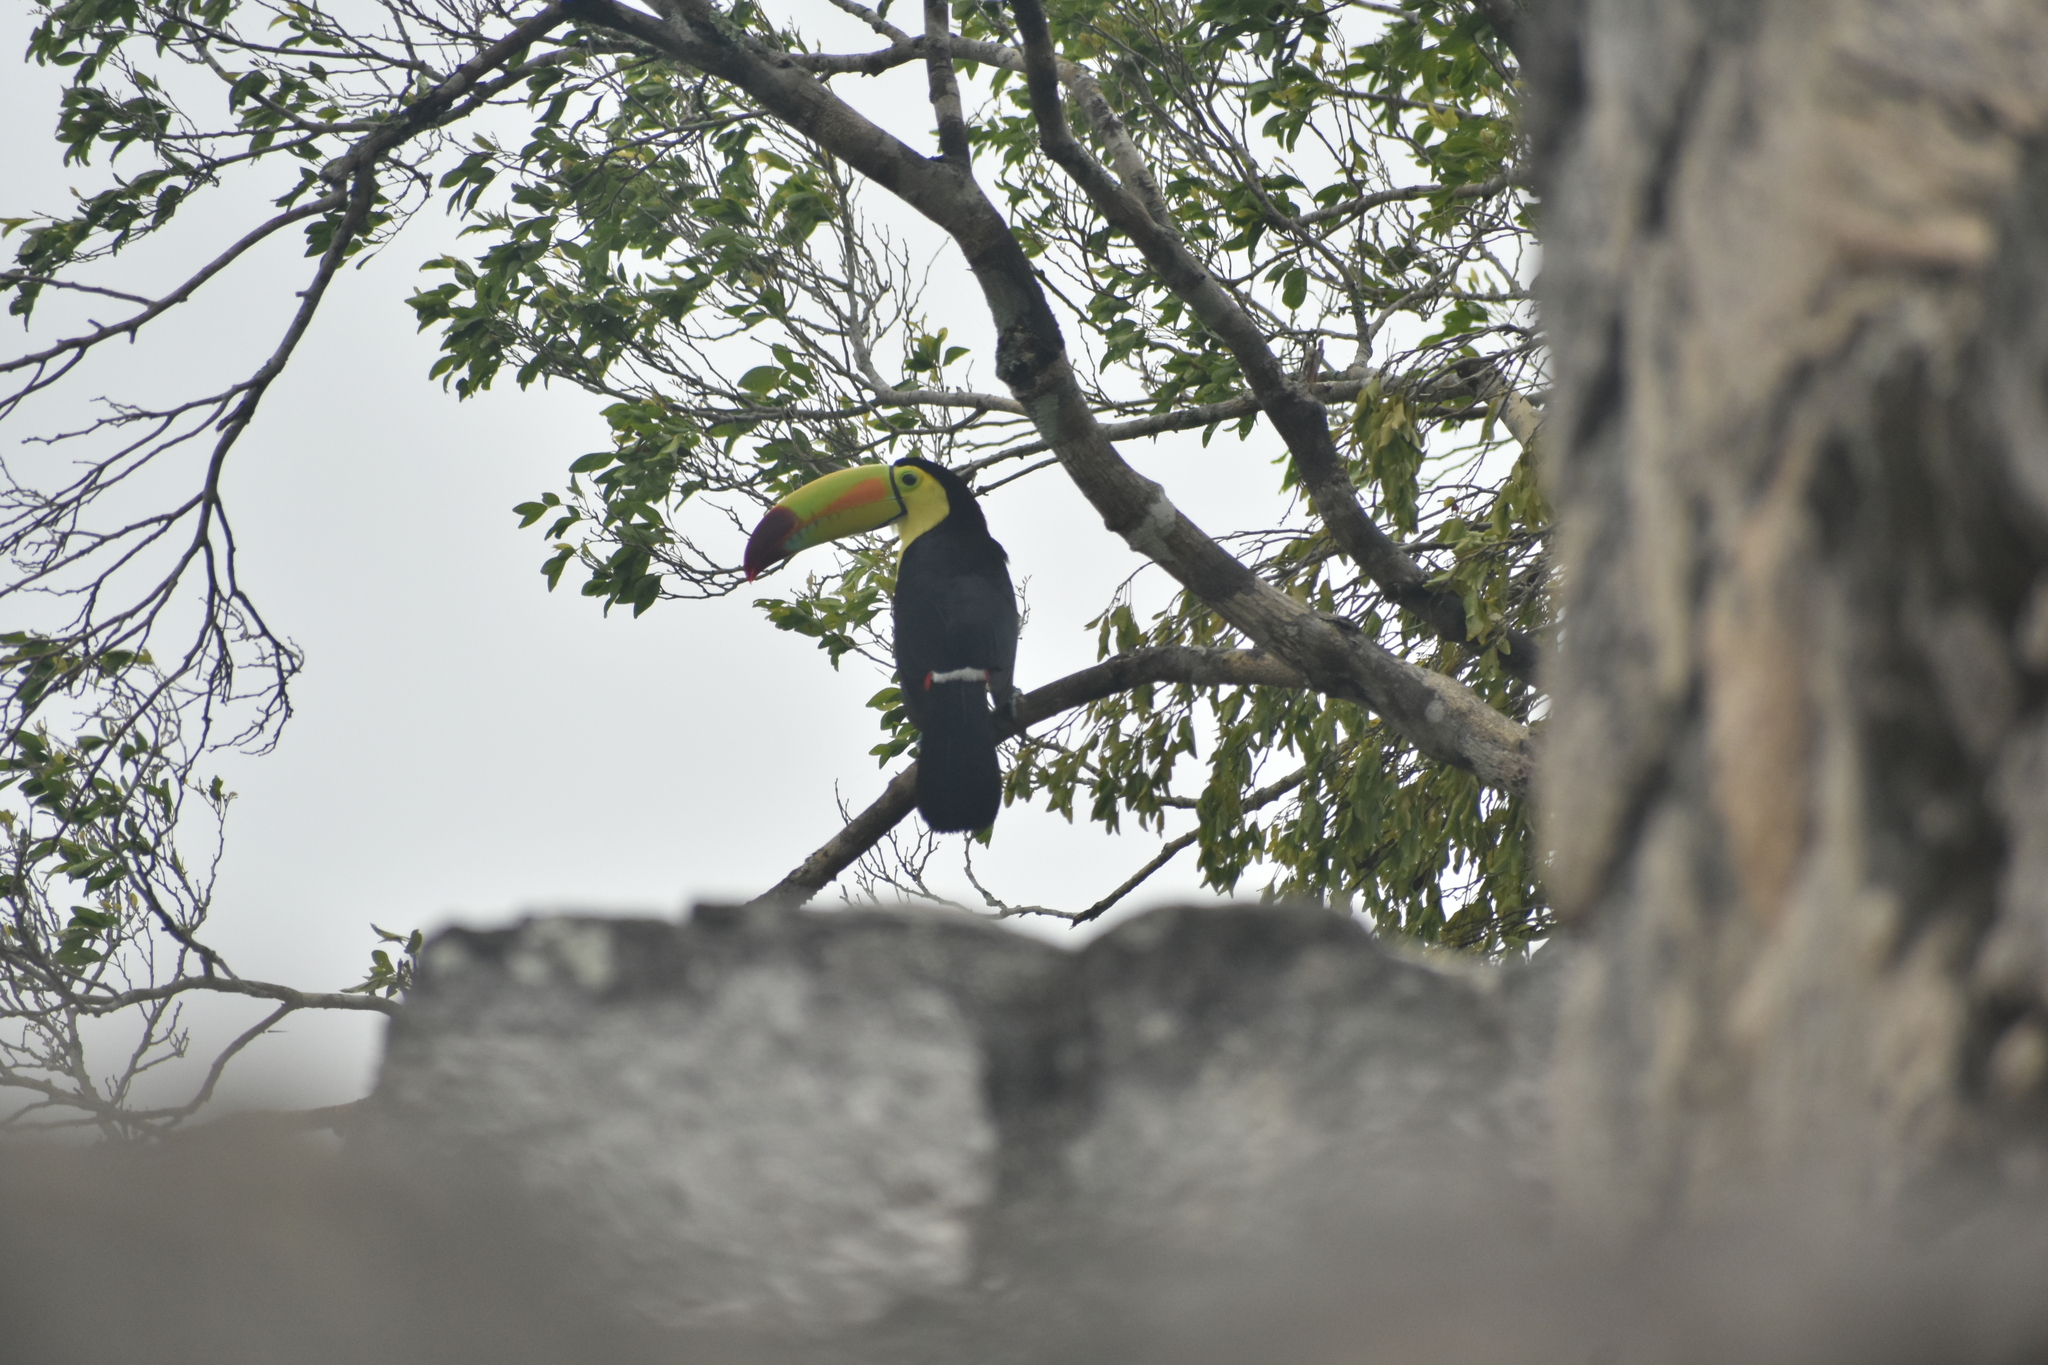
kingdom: Animalia
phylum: Chordata
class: Aves
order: Piciformes
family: Ramphastidae
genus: Ramphastos
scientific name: Ramphastos sulfuratus
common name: Keel-billed toucan
